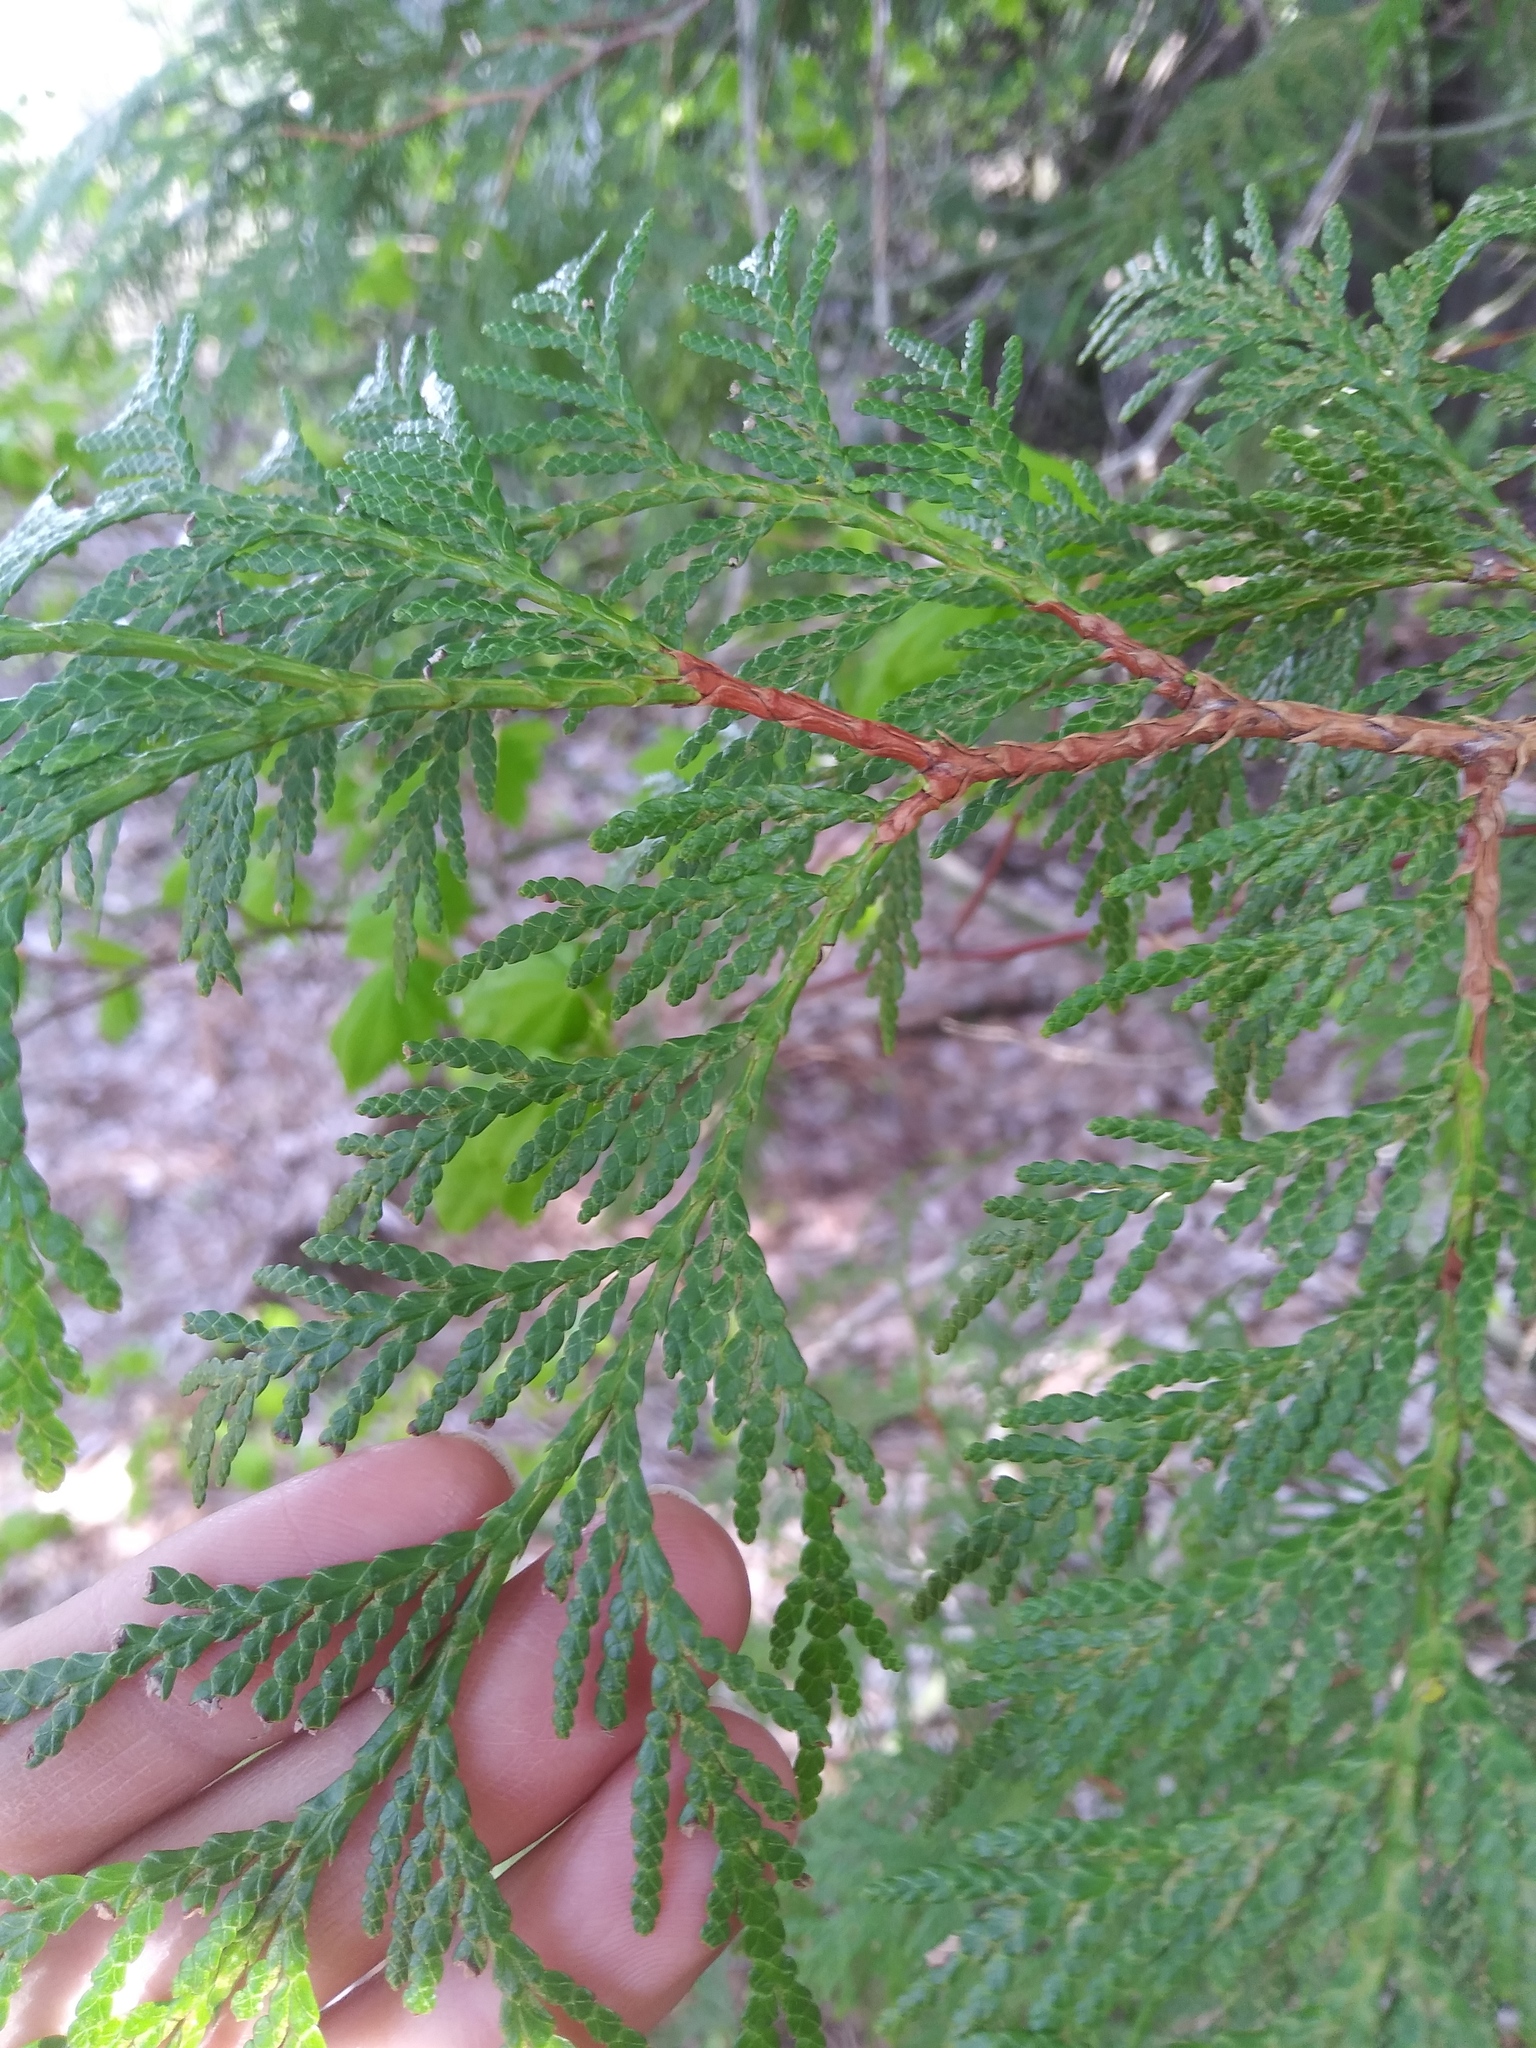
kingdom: Plantae
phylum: Tracheophyta
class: Pinopsida
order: Pinales
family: Cupressaceae
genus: Thuja
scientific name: Thuja plicata
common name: Western red-cedar
